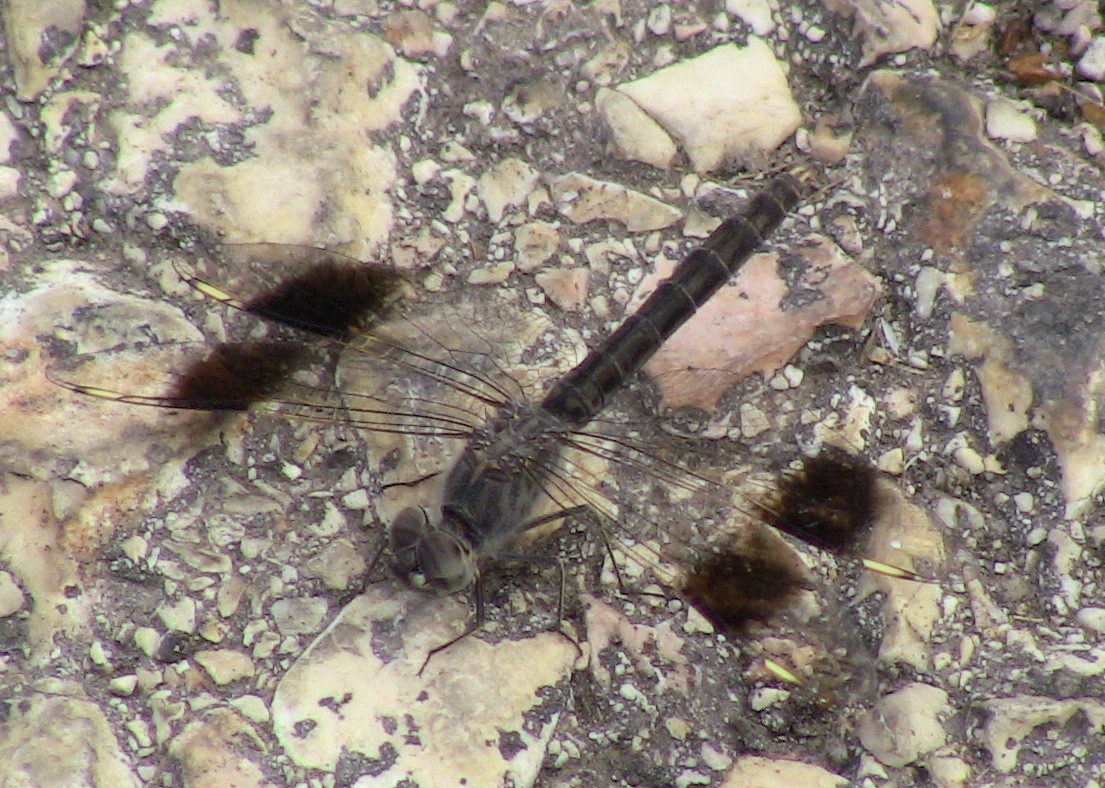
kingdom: Animalia
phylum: Arthropoda
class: Insecta
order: Odonata
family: Libellulidae
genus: Brachythemis
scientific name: Brachythemis impartita
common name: Banded groundling
